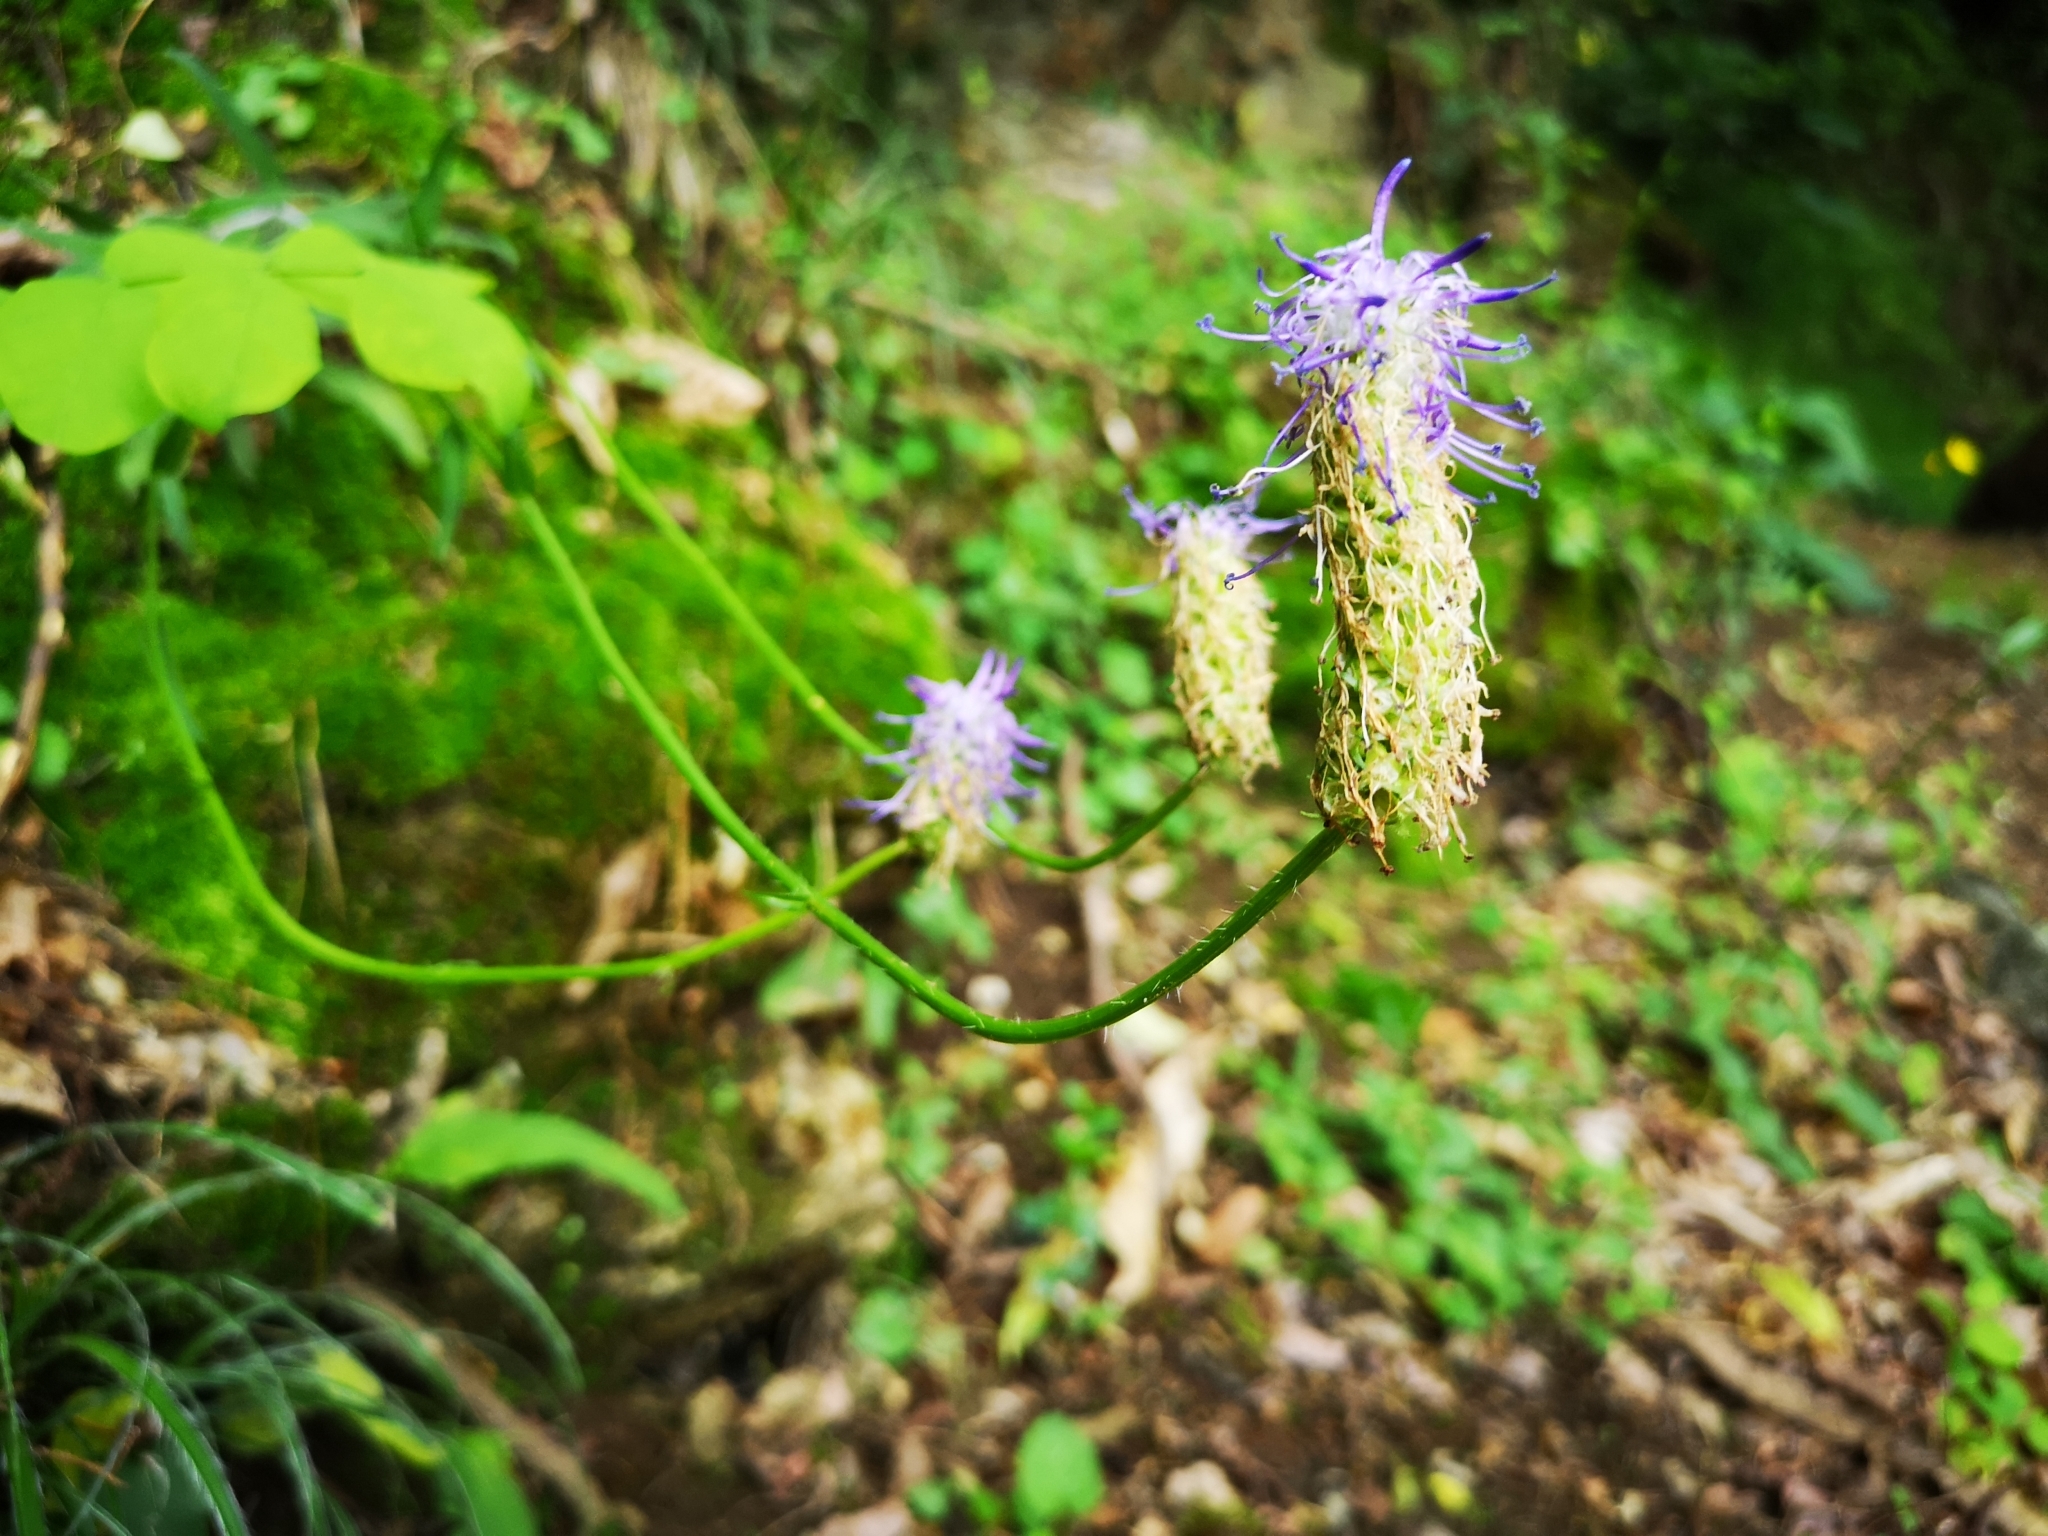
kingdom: Plantae
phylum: Tracheophyta
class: Magnoliopsida
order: Asterales
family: Campanulaceae
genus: Phyteuma
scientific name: Phyteuma betonicifolium
